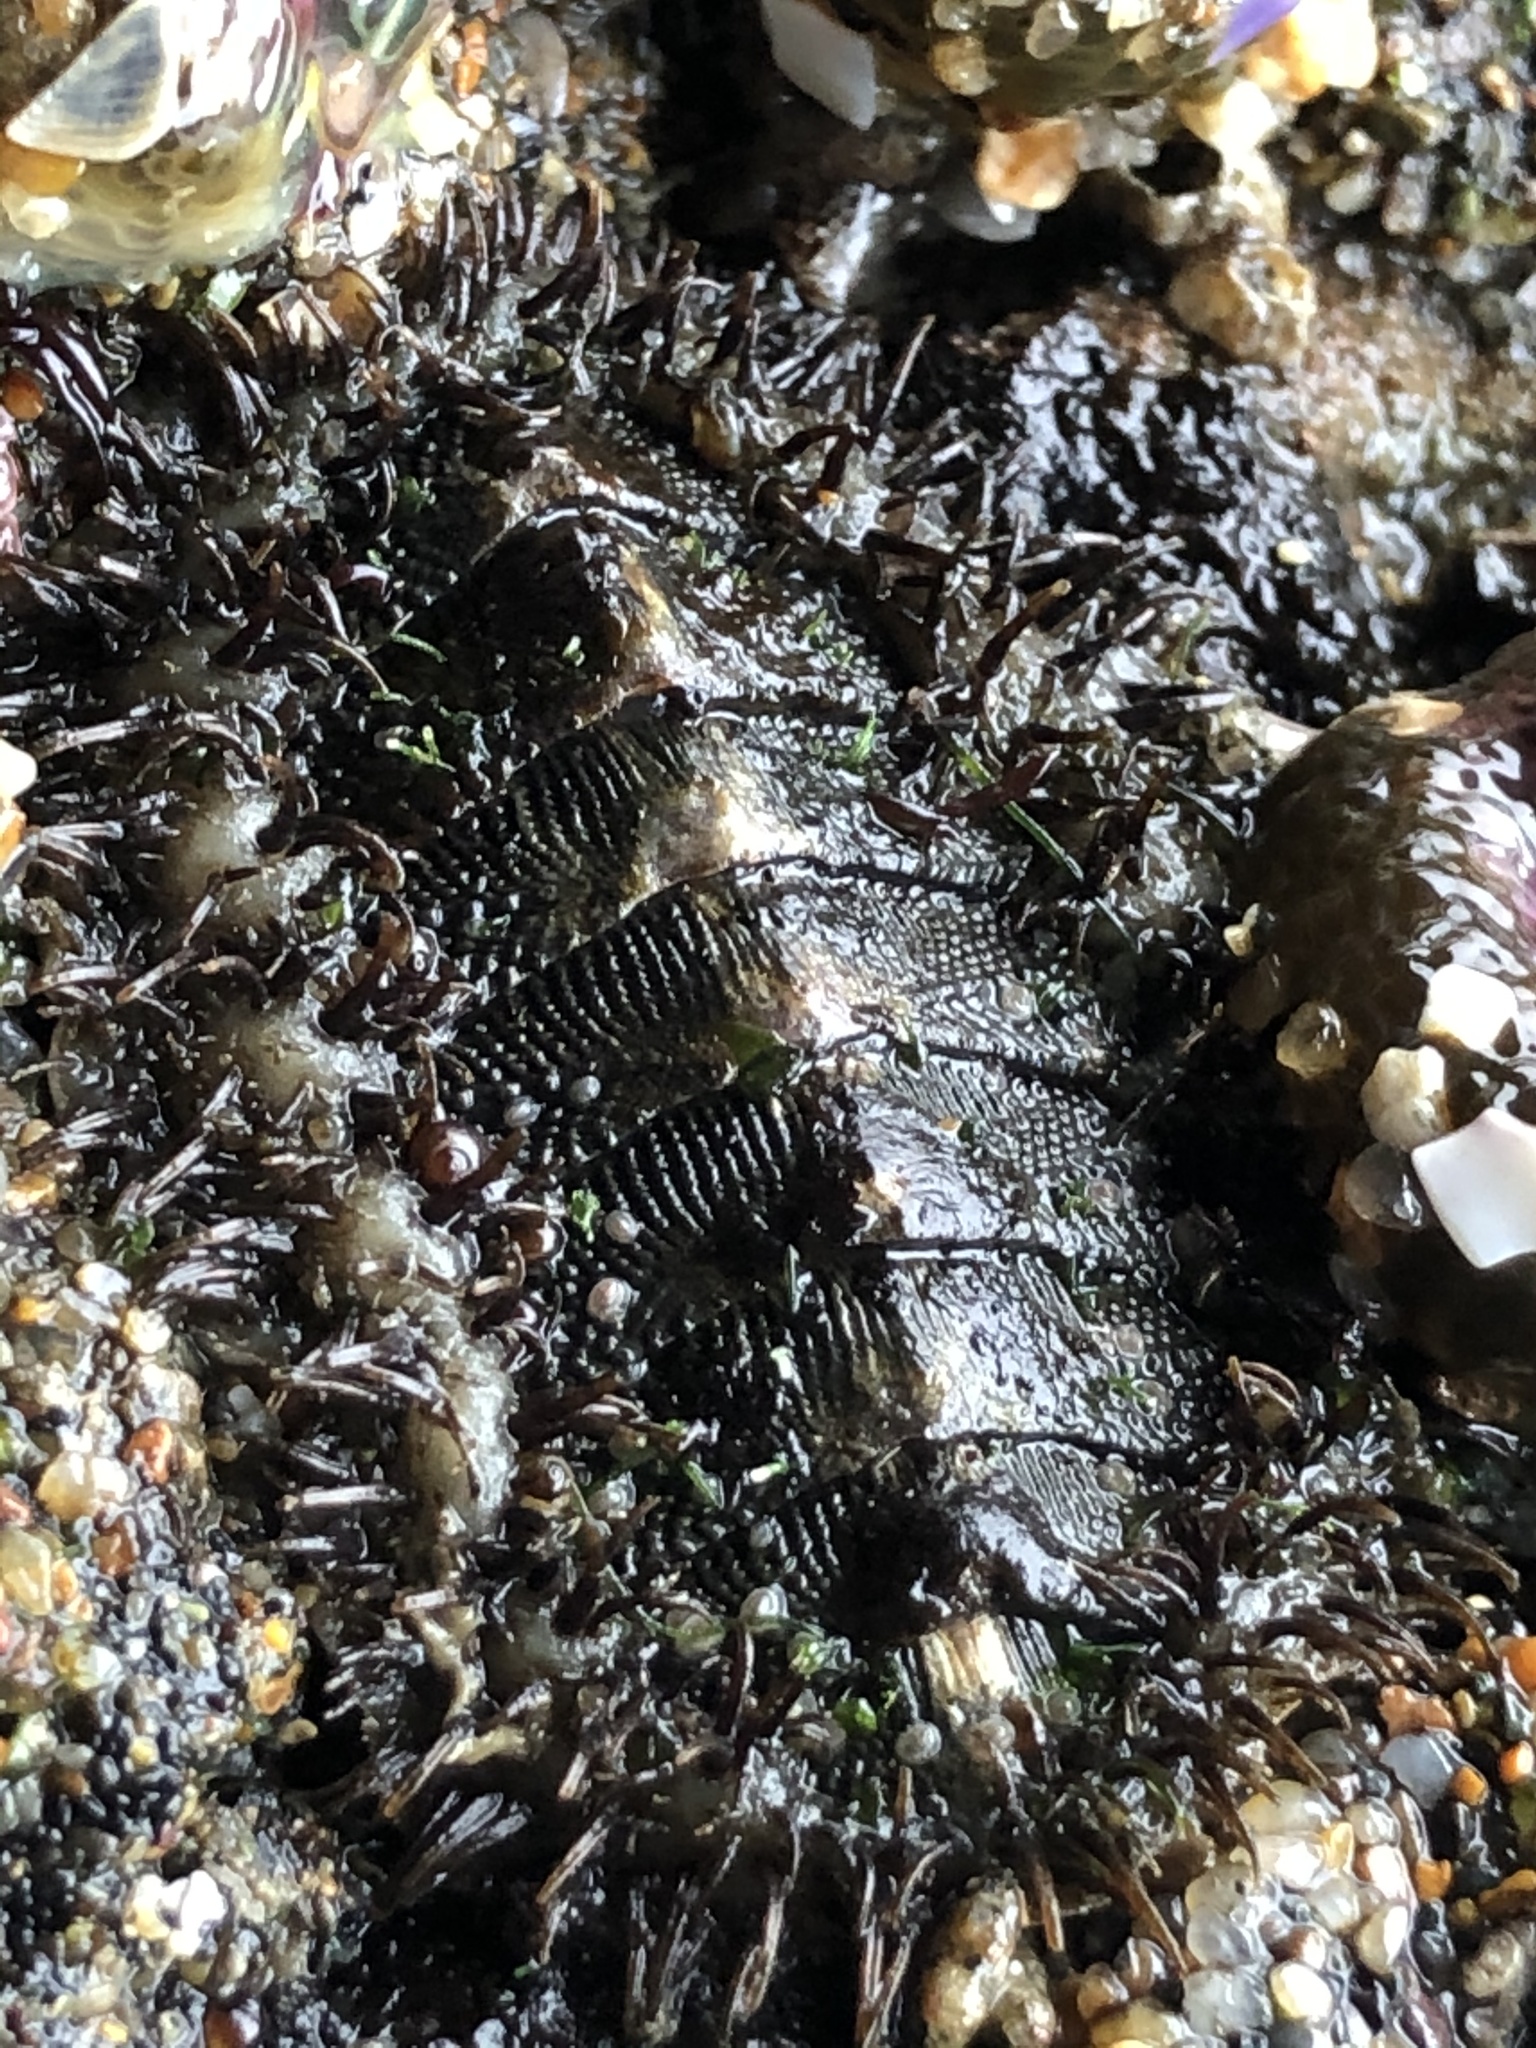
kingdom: Animalia
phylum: Mollusca
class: Polyplacophora
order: Chitonida
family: Mopaliidae
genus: Mopalia
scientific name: Mopalia muscosa
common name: Mossy chiton
